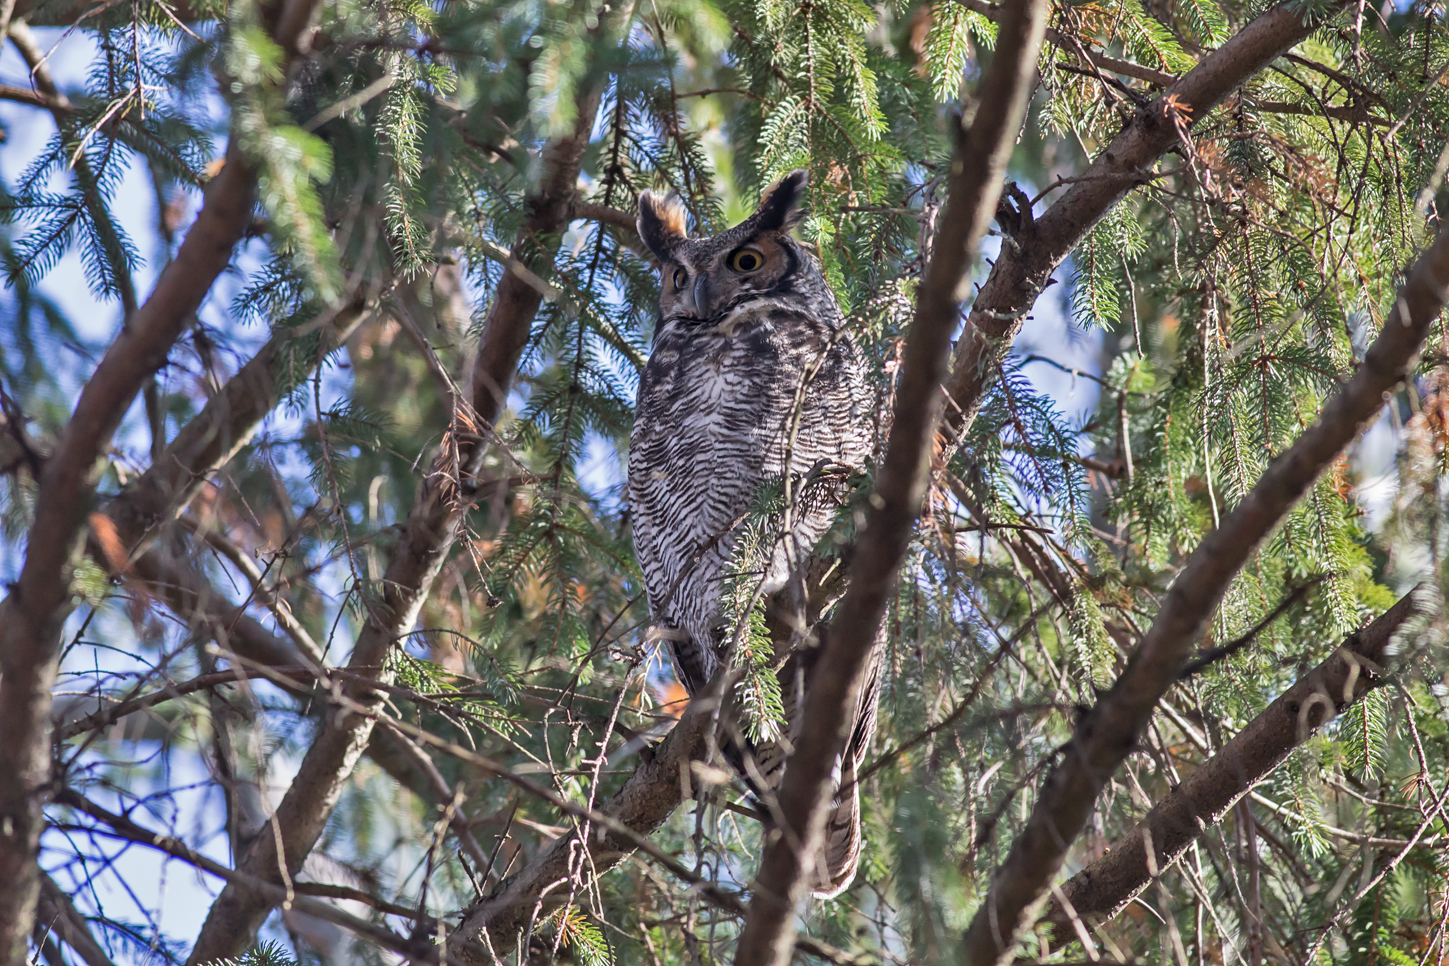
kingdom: Animalia
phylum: Chordata
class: Aves
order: Strigiformes
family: Strigidae
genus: Bubo
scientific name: Bubo virginianus
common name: Great horned owl
